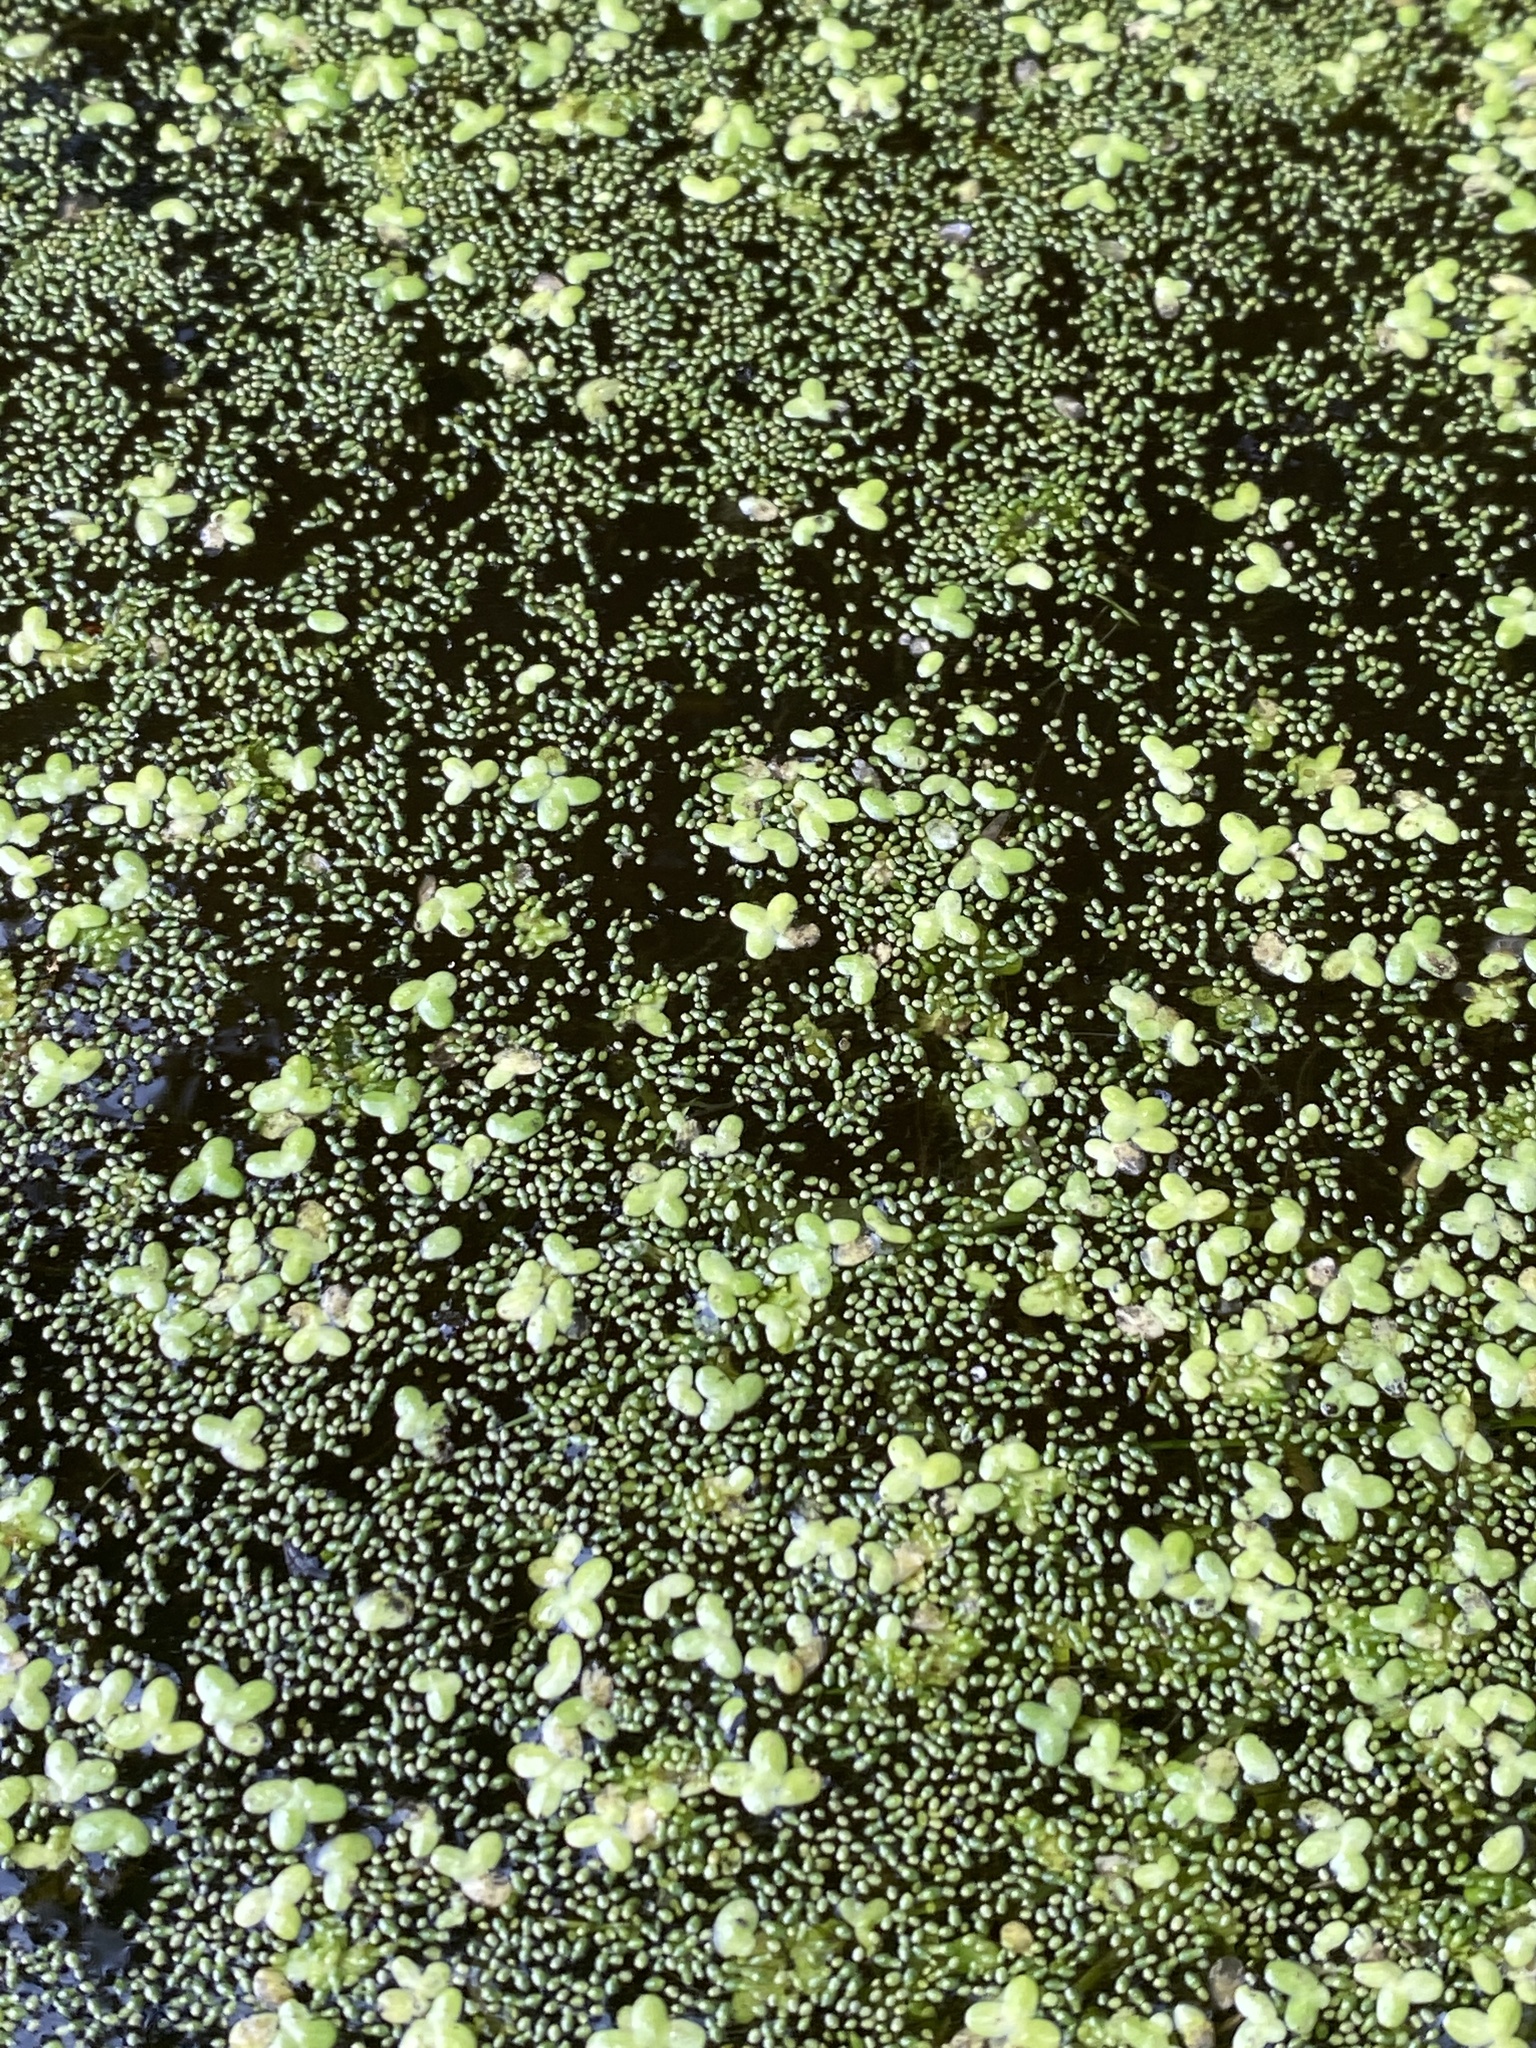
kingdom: Plantae
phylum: Tracheophyta
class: Liliopsida
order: Alismatales
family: Araceae
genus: Lemna
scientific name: Lemna minor
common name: Common duckweed
